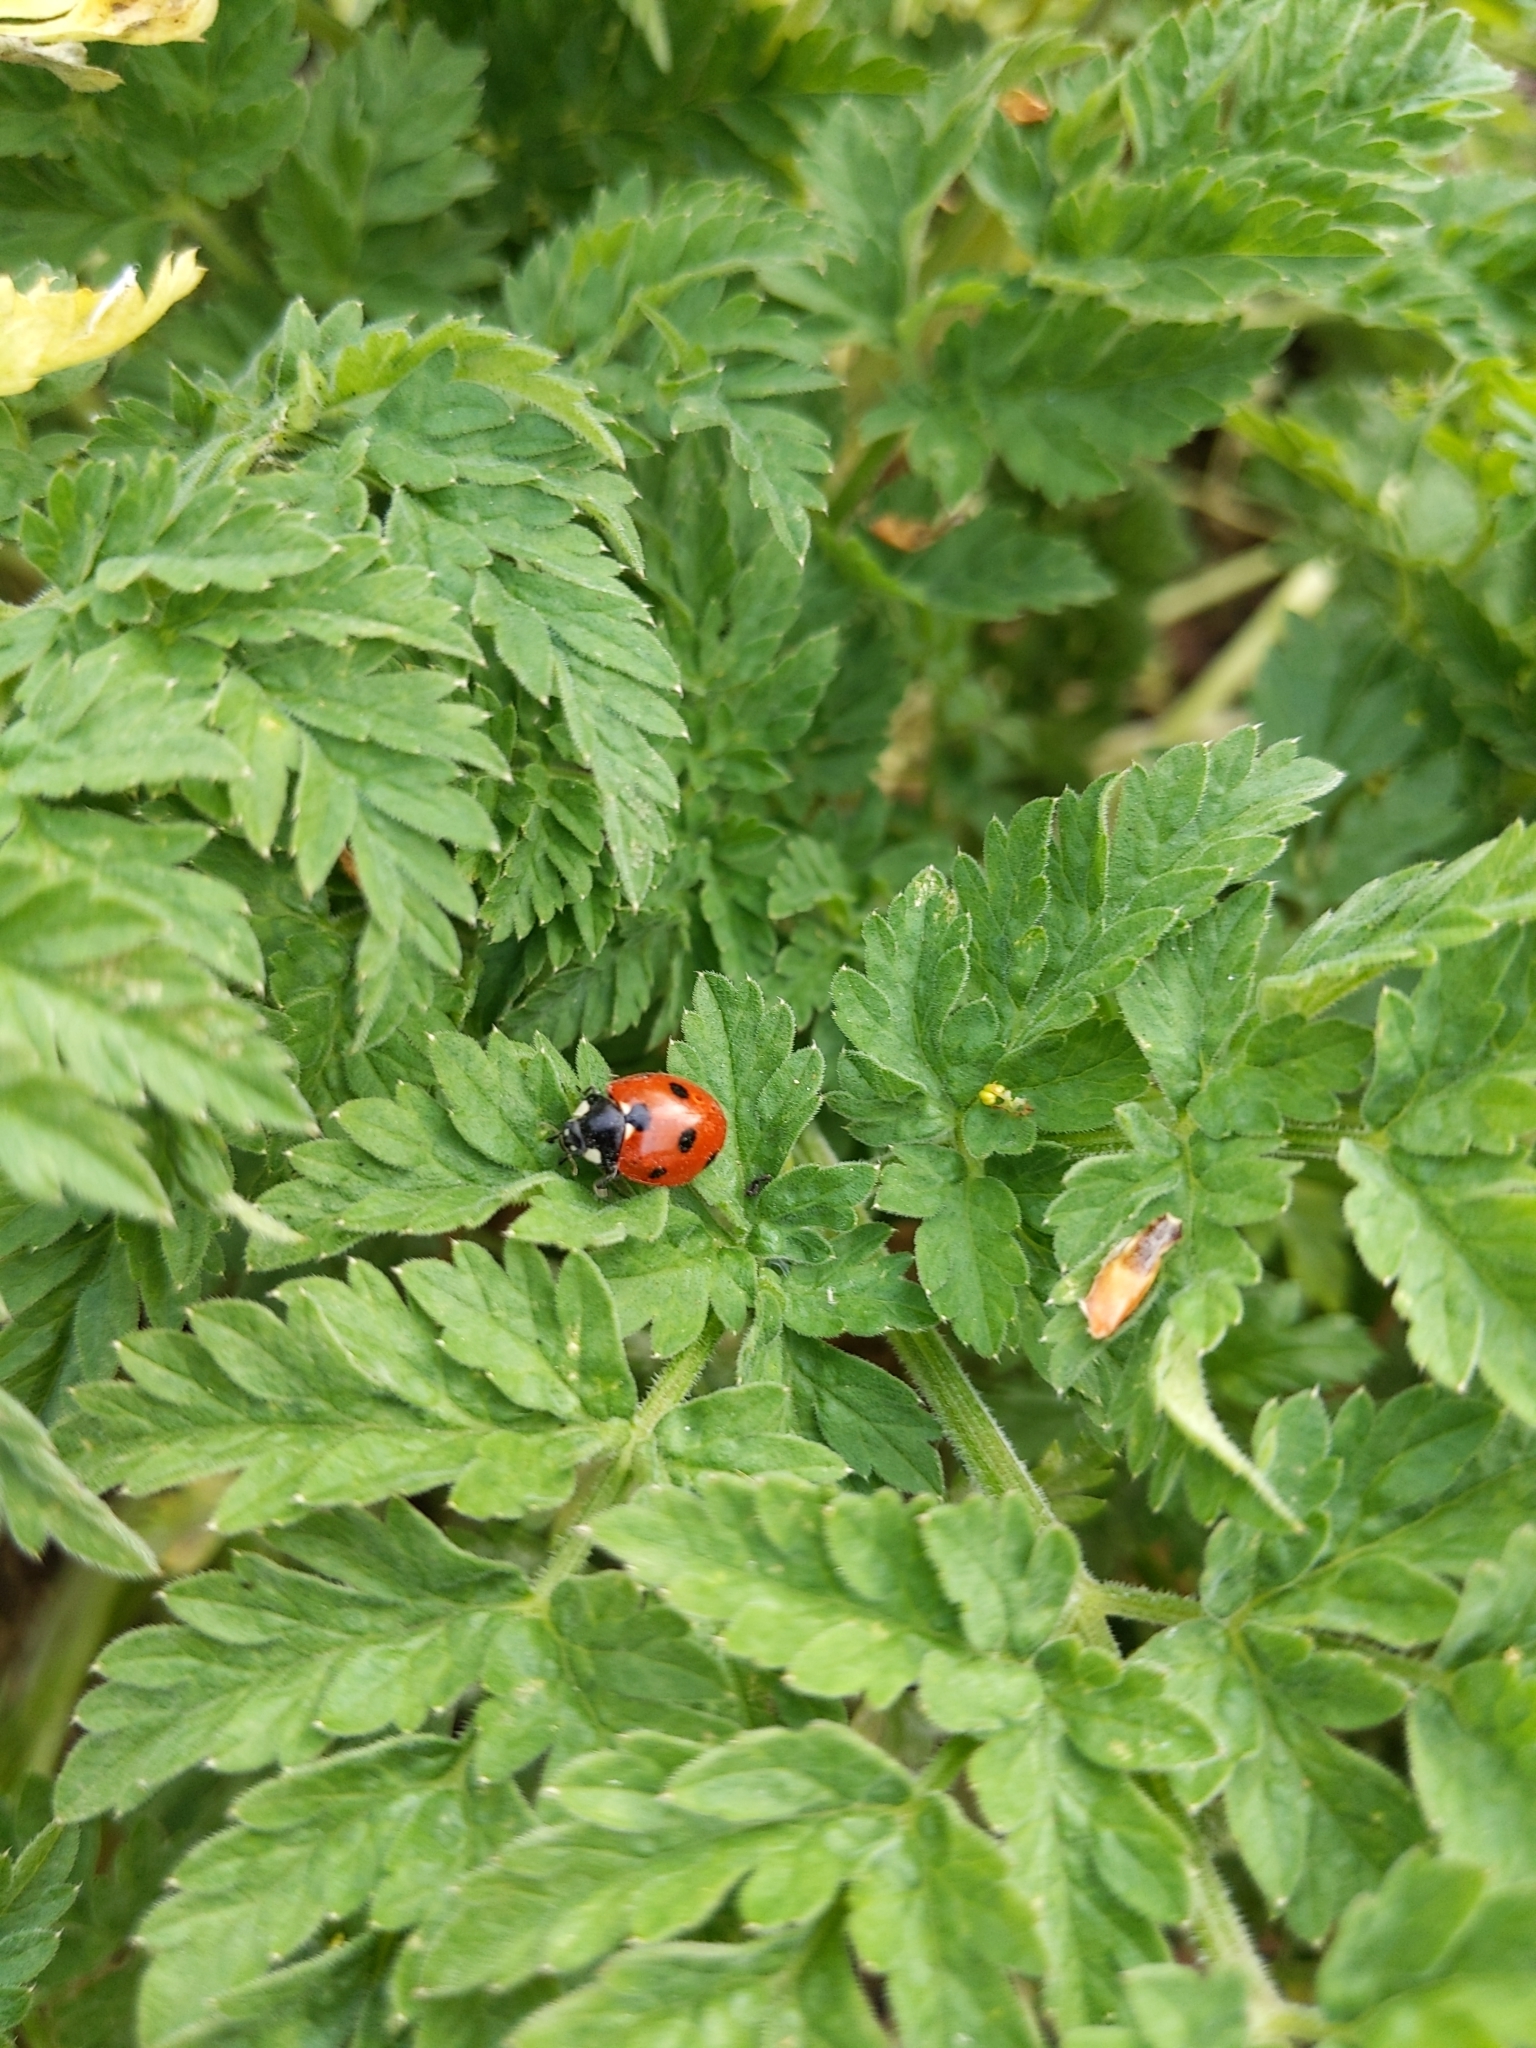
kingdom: Animalia
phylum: Arthropoda
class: Insecta
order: Coleoptera
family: Coccinellidae
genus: Coccinella
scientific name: Coccinella septempunctata
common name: Sevenspotted lady beetle
